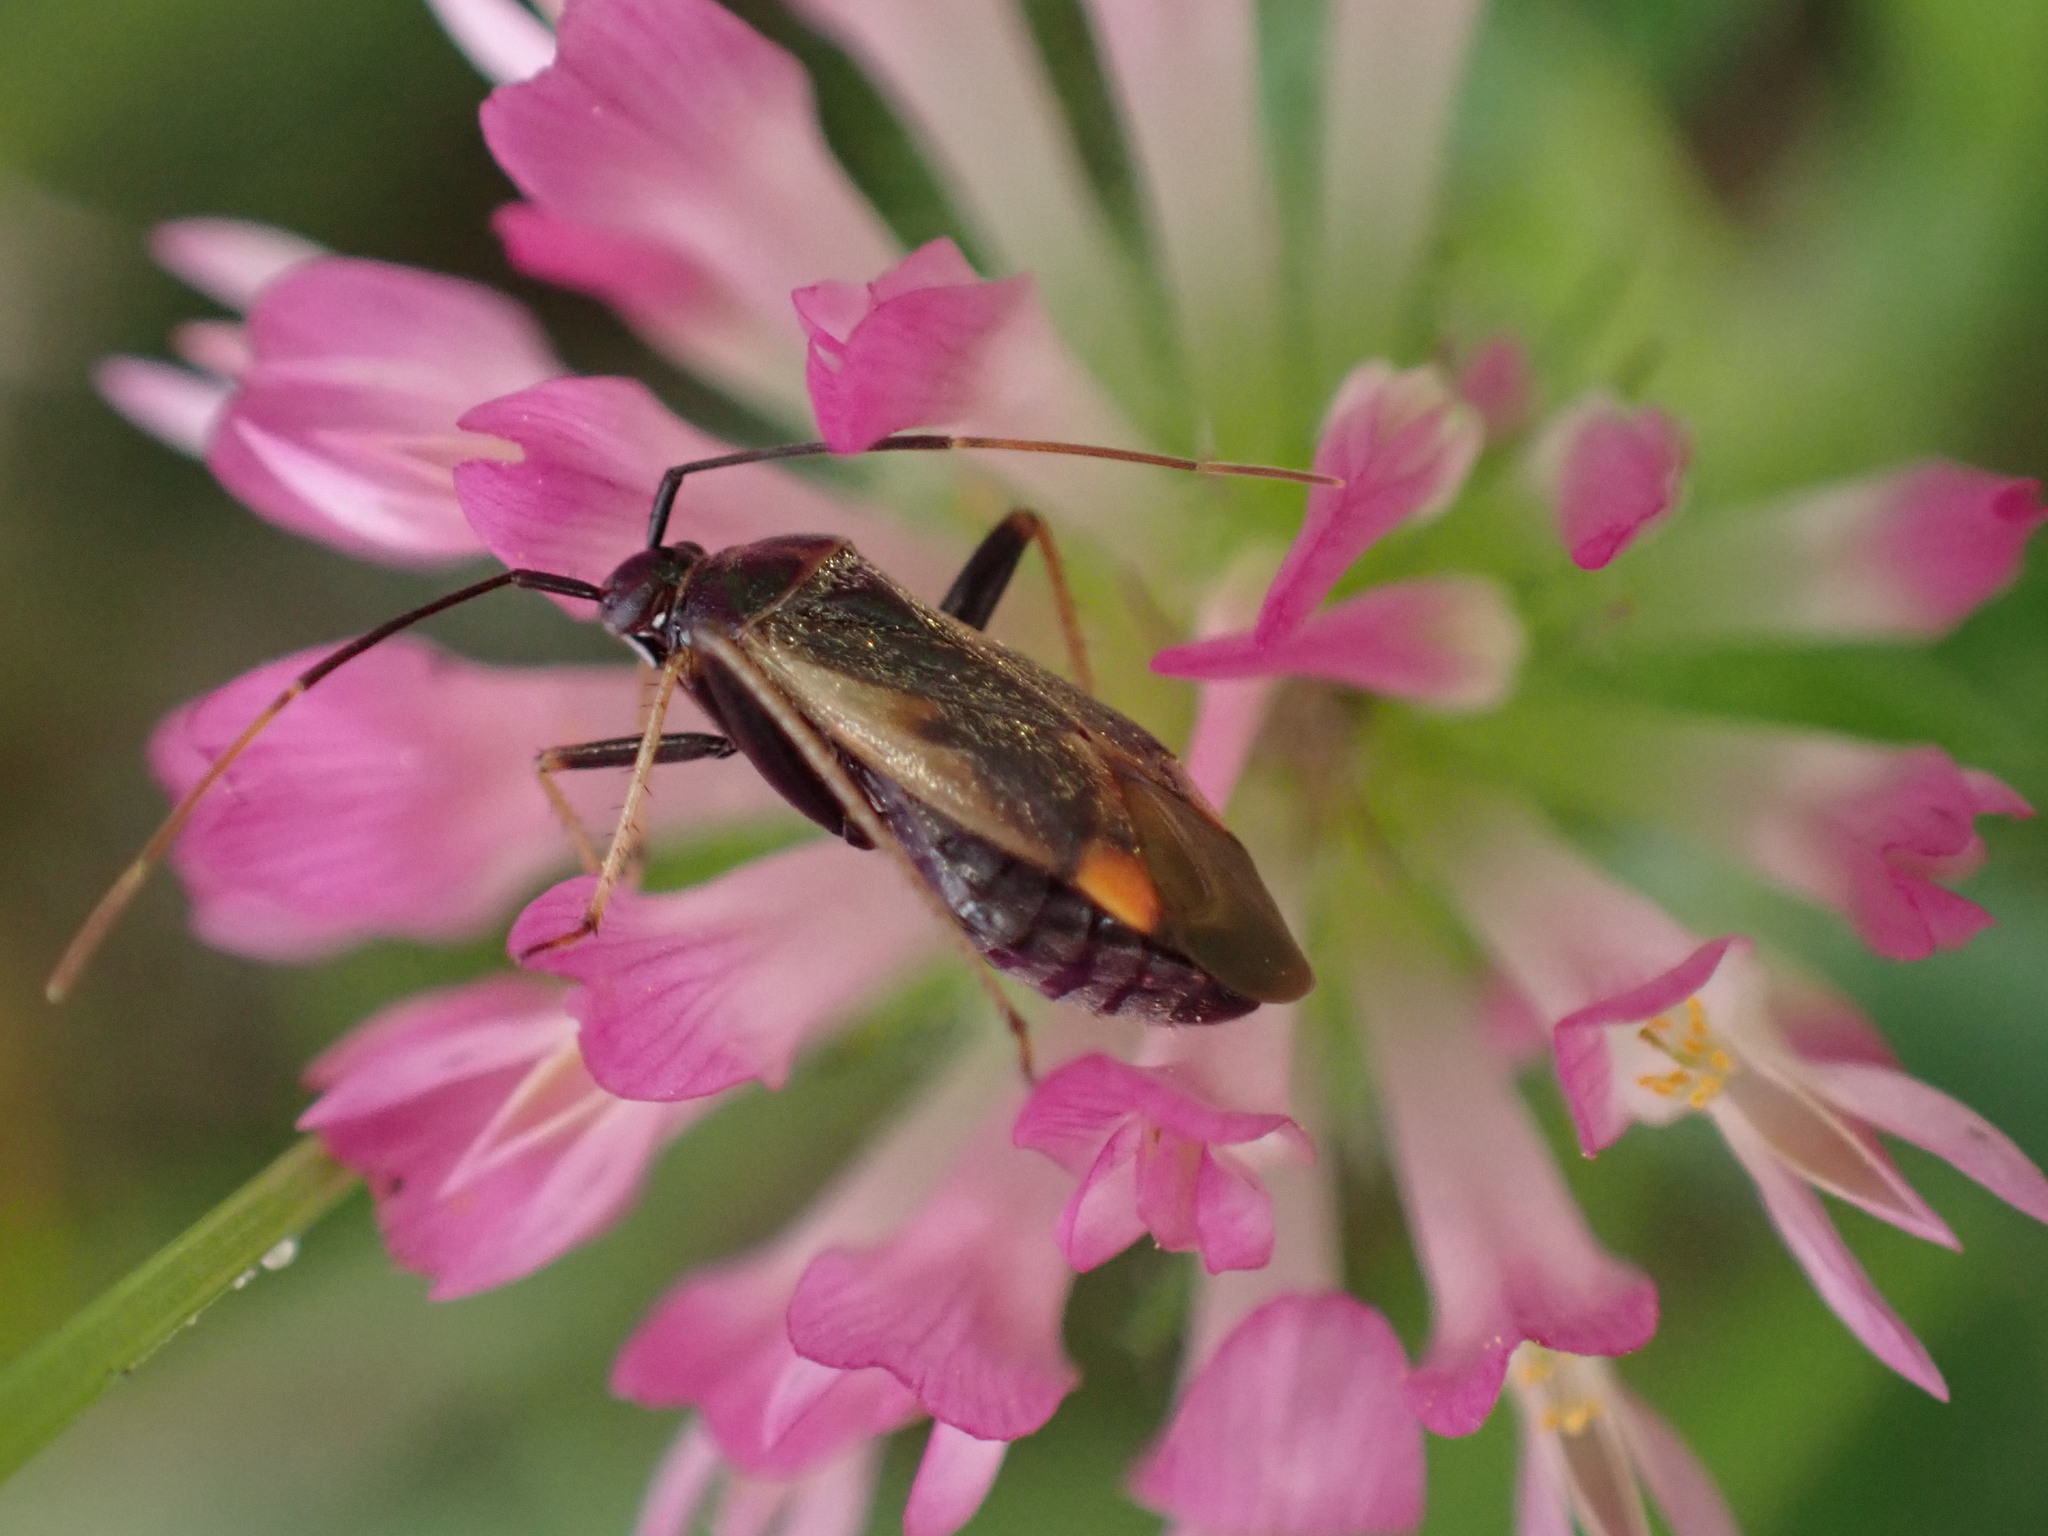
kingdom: Animalia
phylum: Arthropoda
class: Insecta
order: Hemiptera
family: Miridae
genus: Adelphocoris
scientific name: Adelphocoris seticornis
